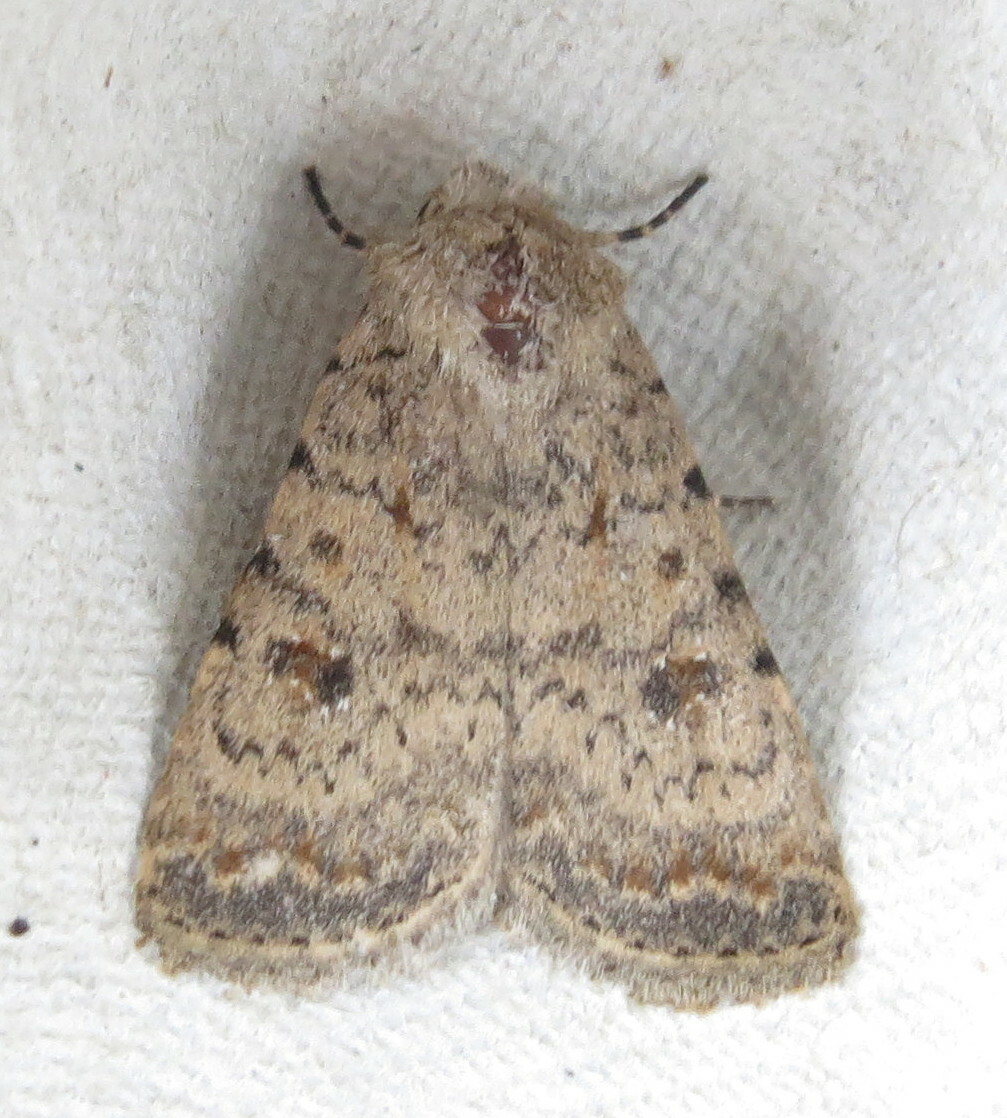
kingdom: Animalia
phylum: Arthropoda
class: Insecta
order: Lepidoptera
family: Noctuidae
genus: Caradrina
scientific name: Caradrina clavipalpis
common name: Pale mottled willow
